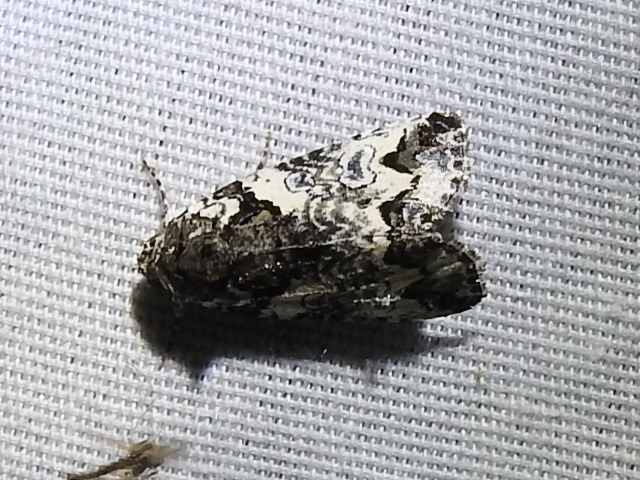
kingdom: Animalia
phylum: Arthropoda
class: Insecta
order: Lepidoptera
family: Noctuidae
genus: Cerma
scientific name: Cerma cerintha
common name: Tufted bird-dropping moth
